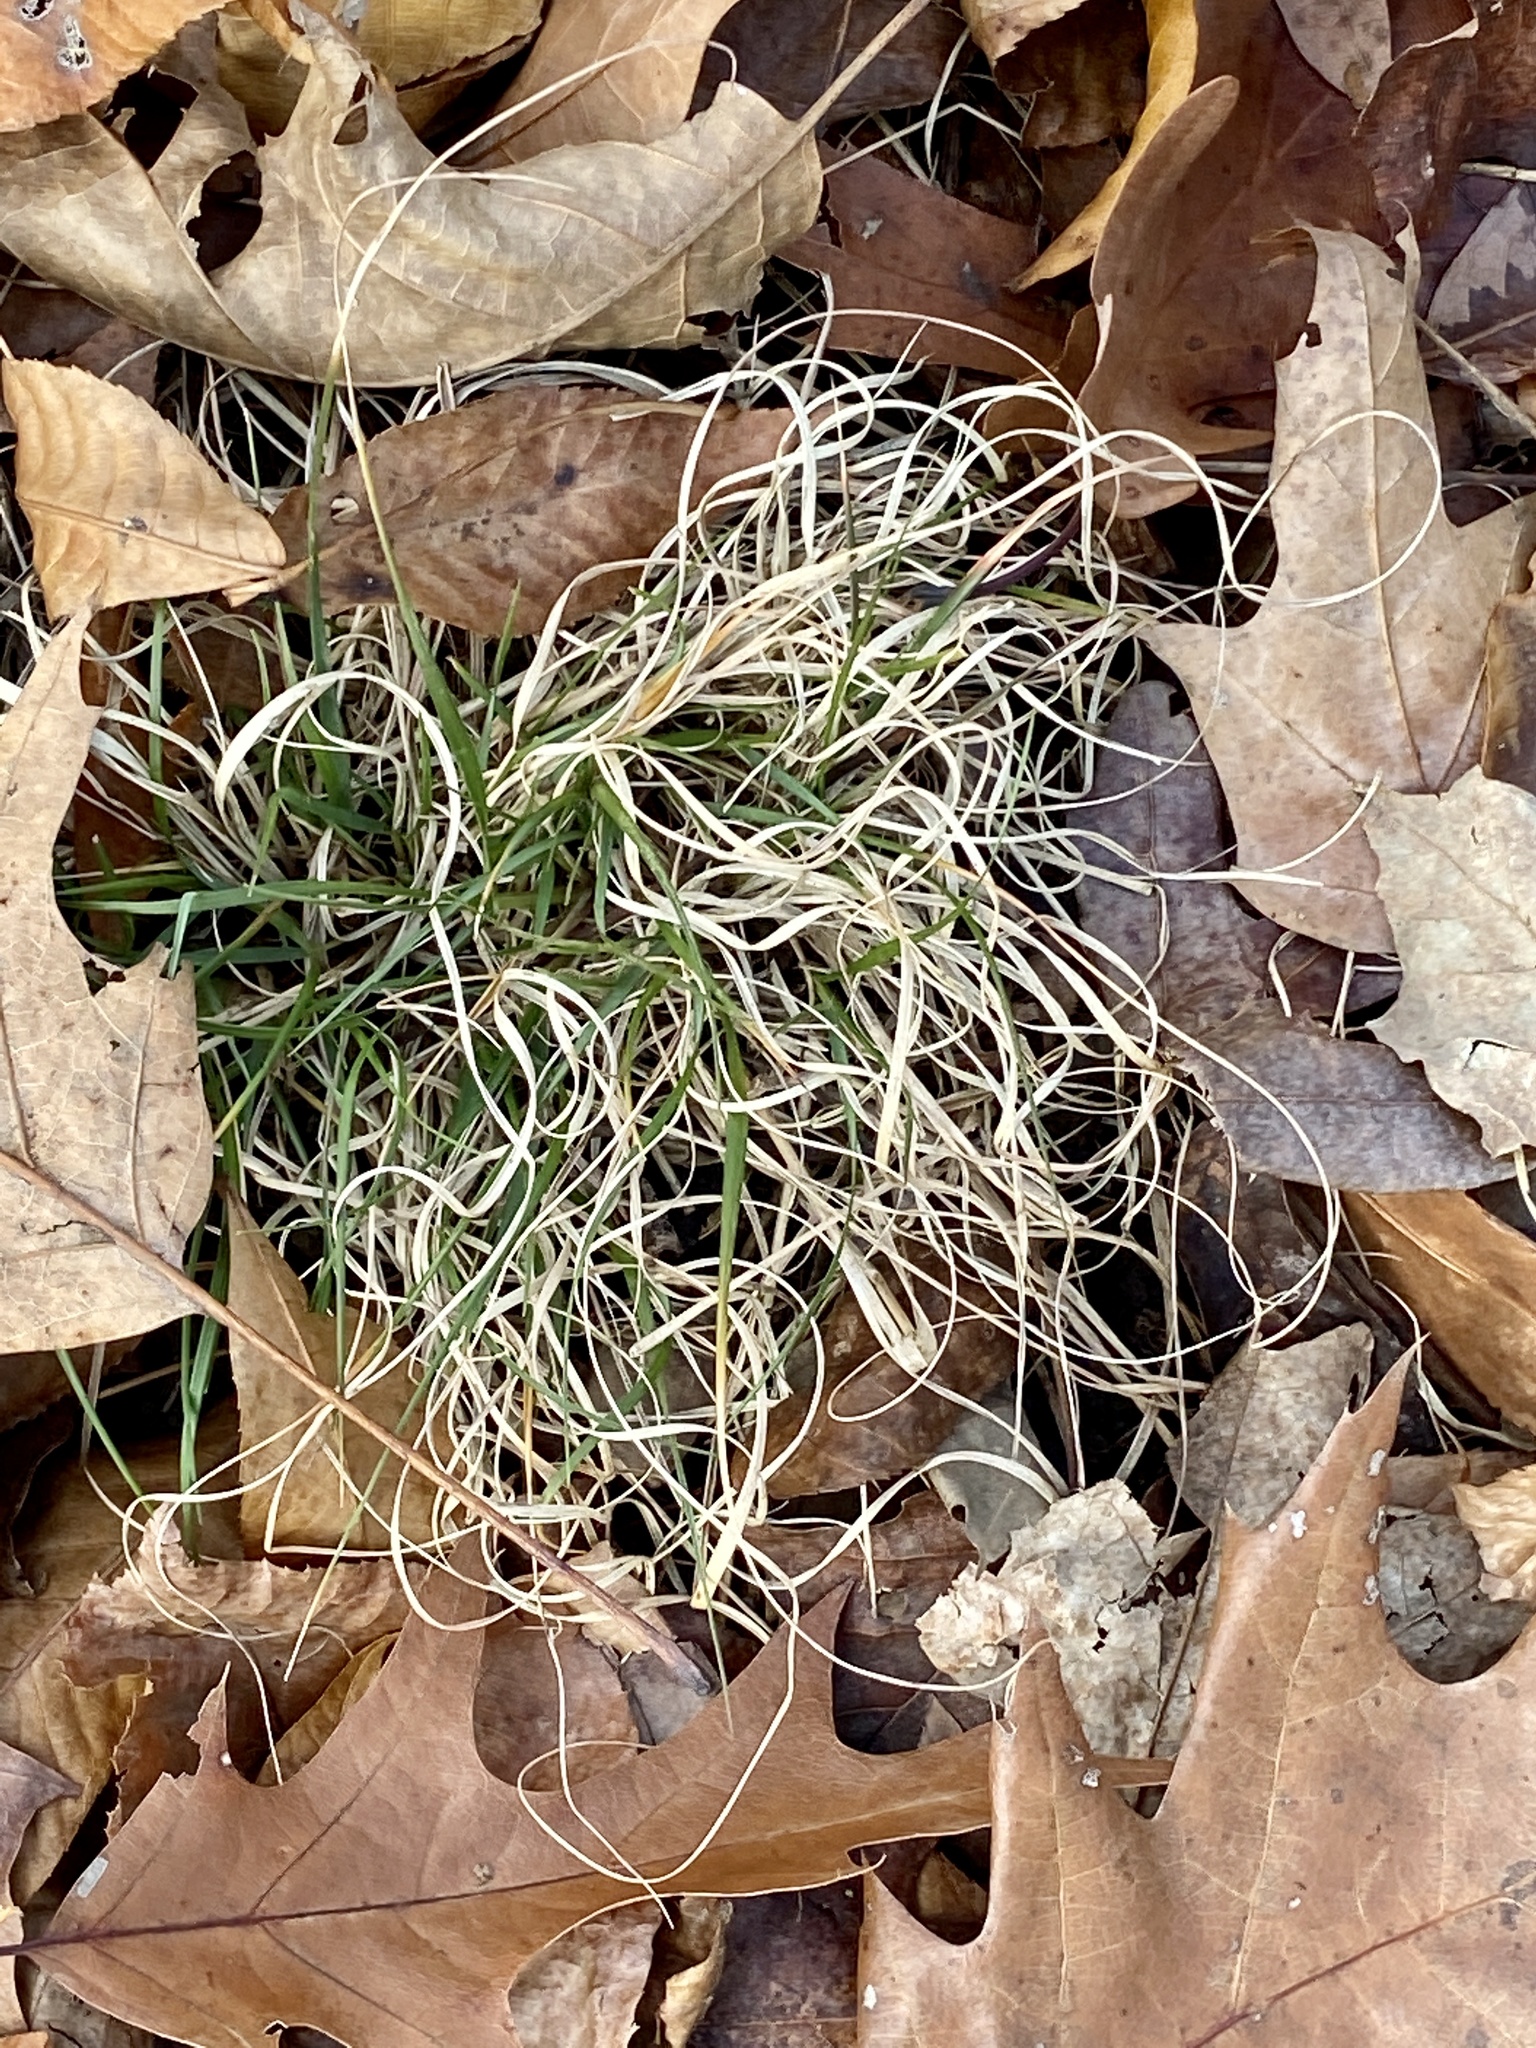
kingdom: Plantae
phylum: Tracheophyta
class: Liliopsida
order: Poales
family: Poaceae
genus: Danthonia
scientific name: Danthonia spicata
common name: Common wild oatgrass
